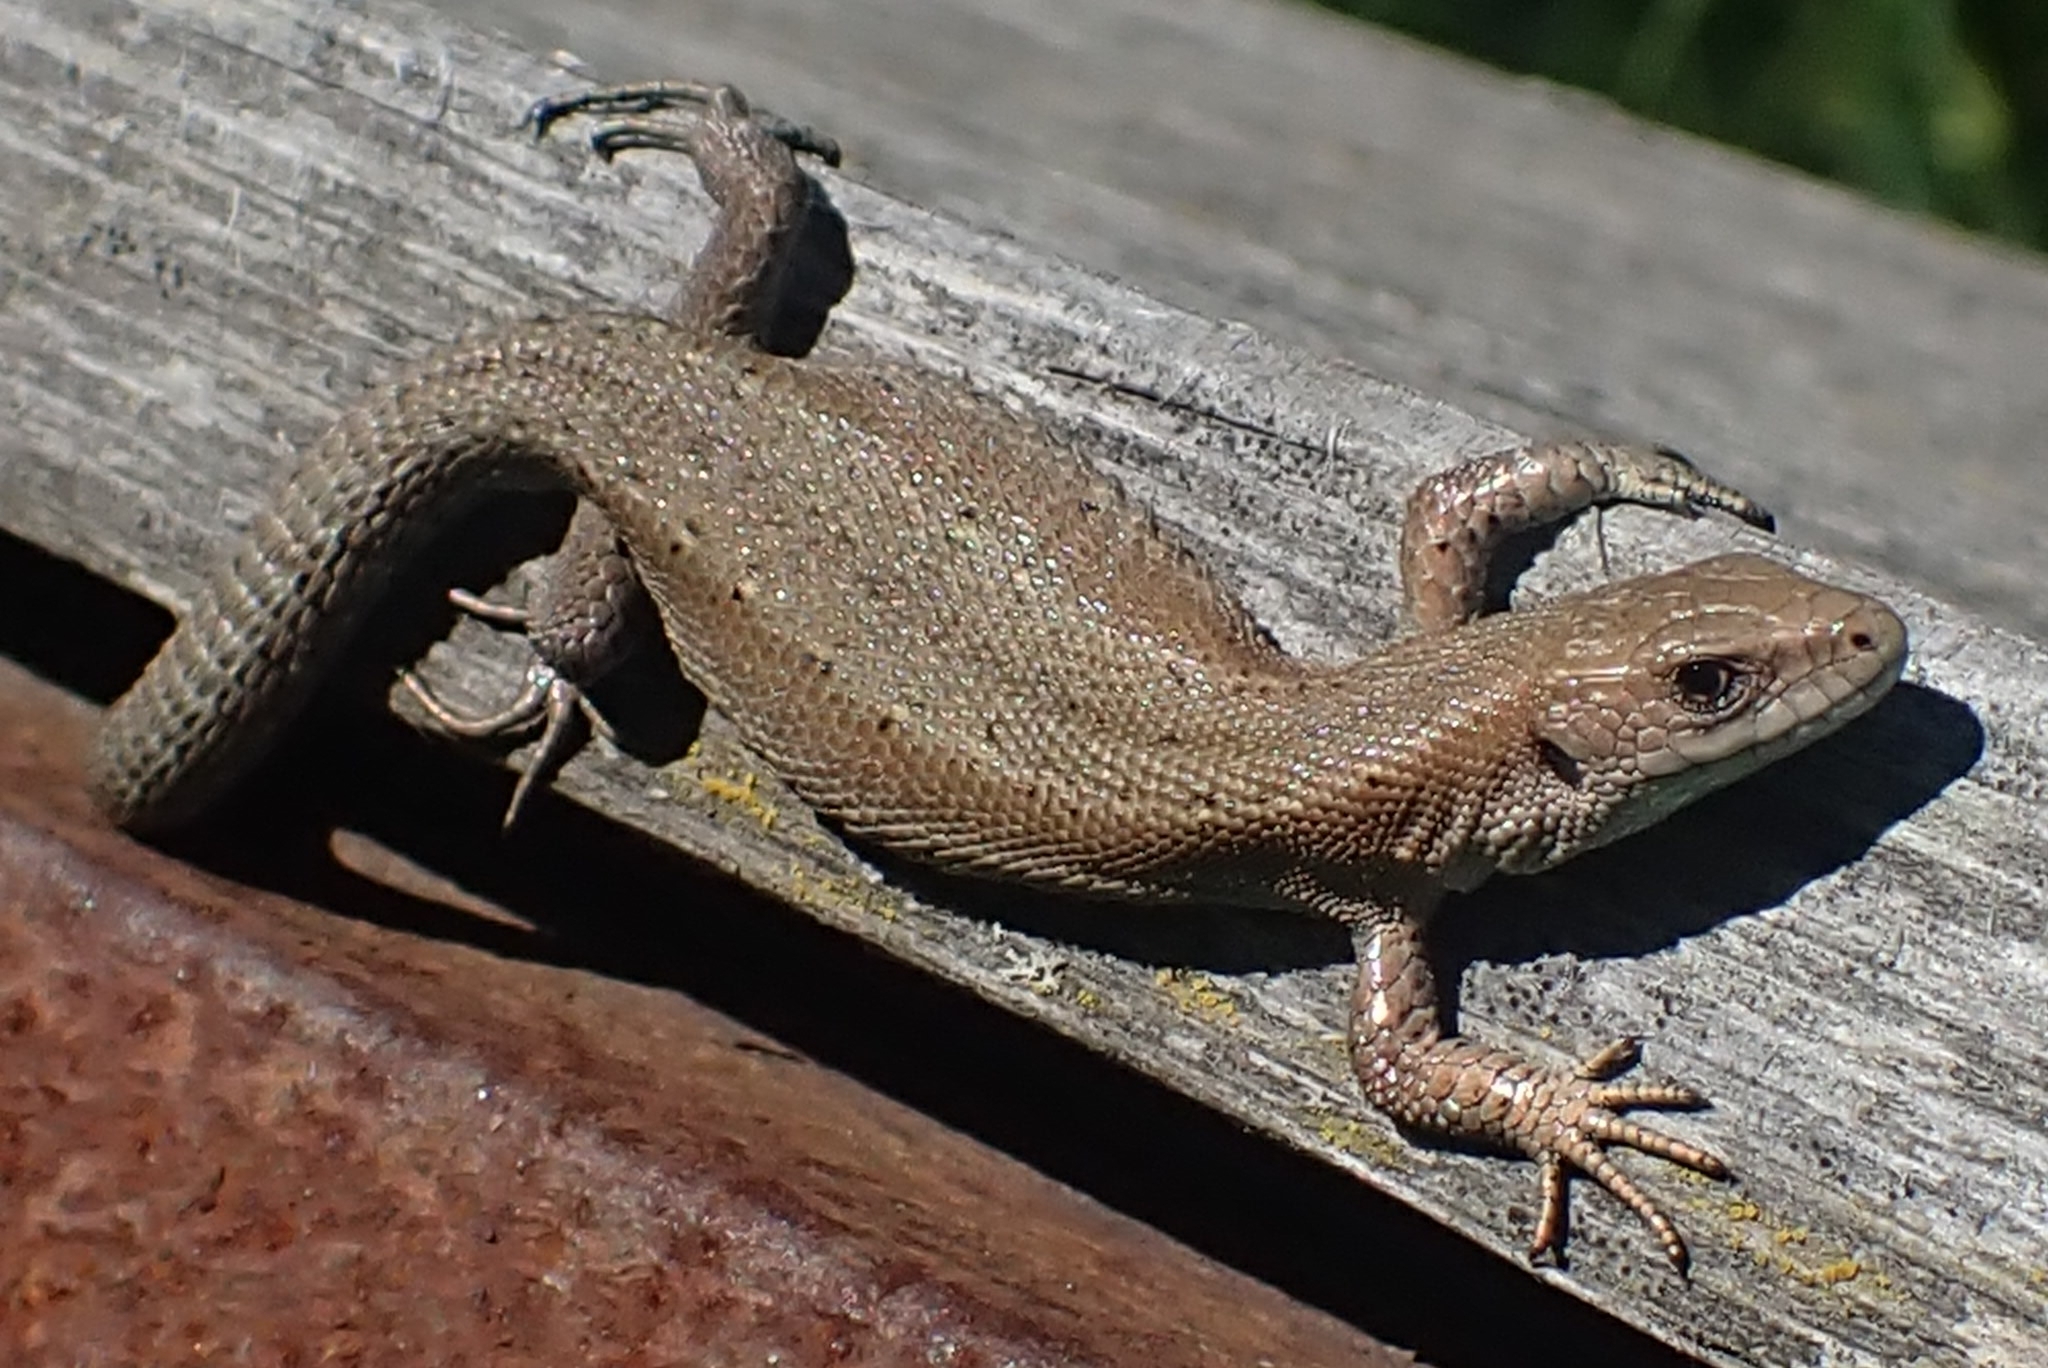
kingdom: Animalia
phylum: Chordata
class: Squamata
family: Lacertidae
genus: Zootoca
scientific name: Zootoca vivipara
